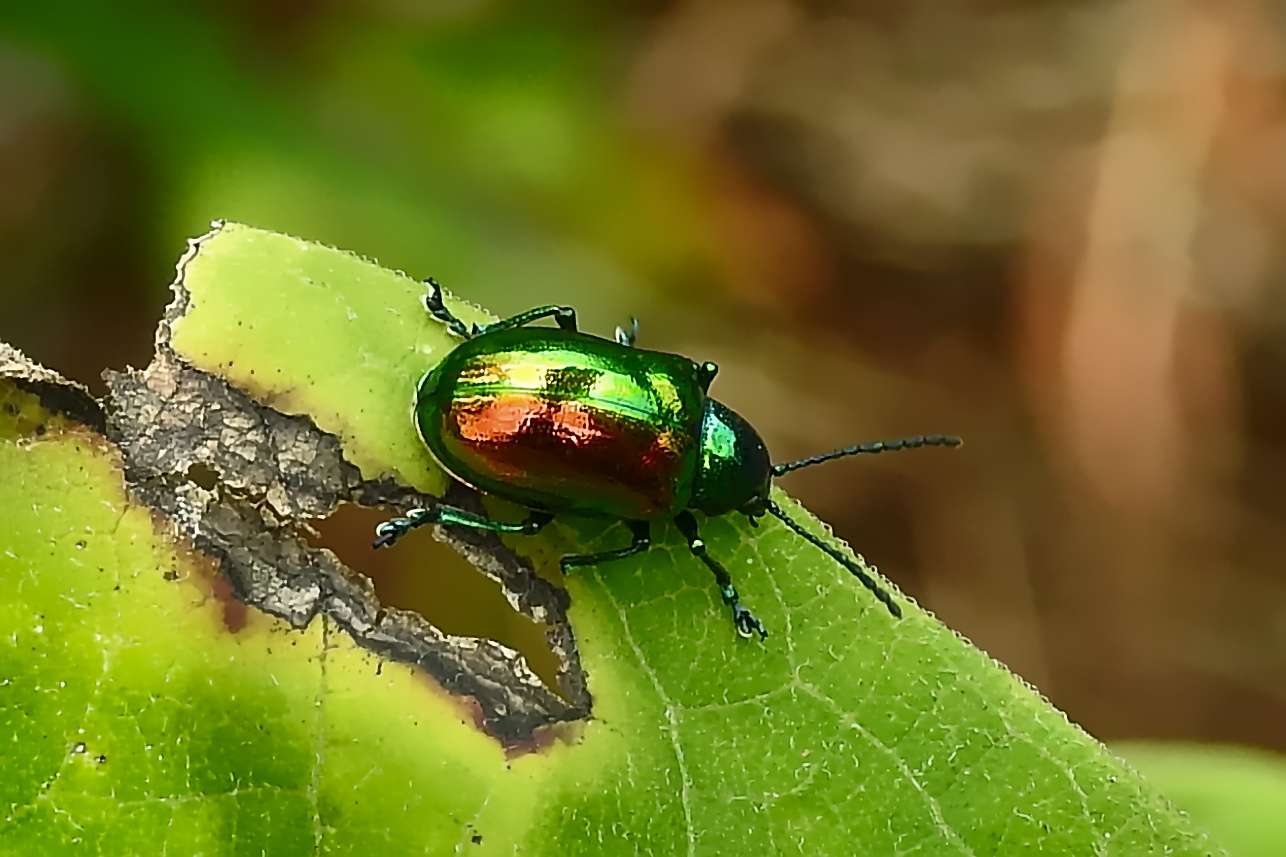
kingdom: Animalia
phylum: Arthropoda
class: Insecta
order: Coleoptera
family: Chrysomelidae
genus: Chrysochus
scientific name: Chrysochus auratus
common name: Dogbane leaf beetle
